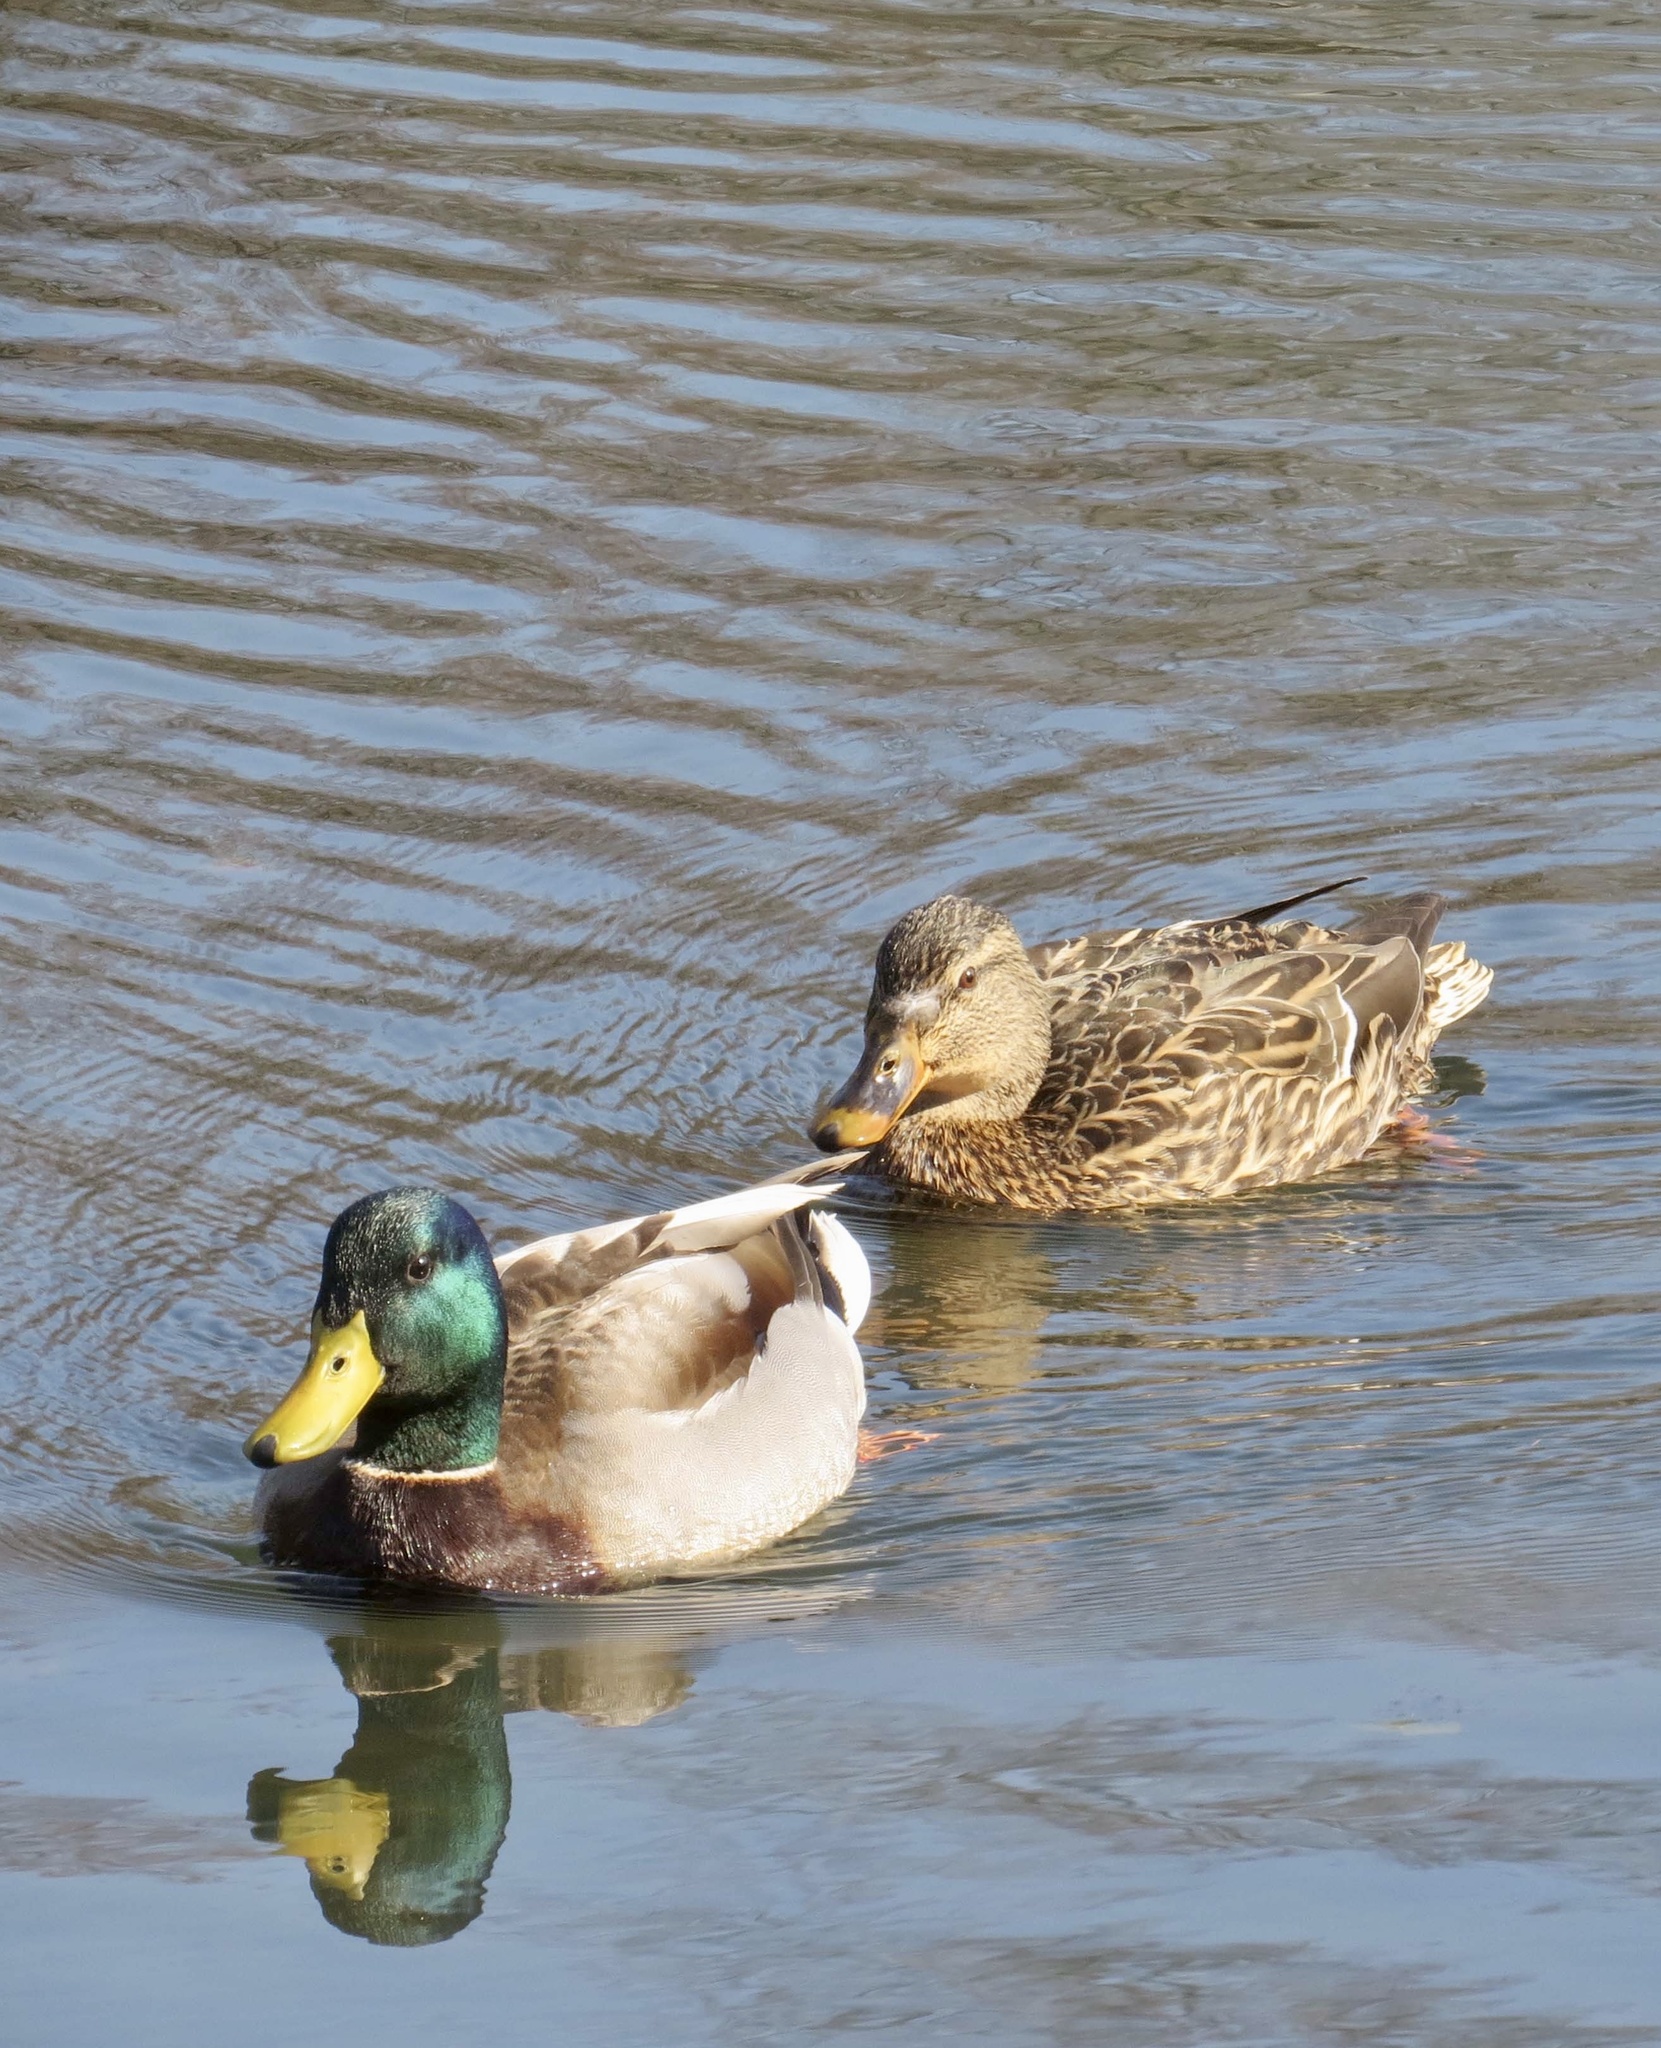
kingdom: Animalia
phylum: Chordata
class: Aves
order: Anseriformes
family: Anatidae
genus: Anas
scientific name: Anas platyrhynchos
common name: Mallard
